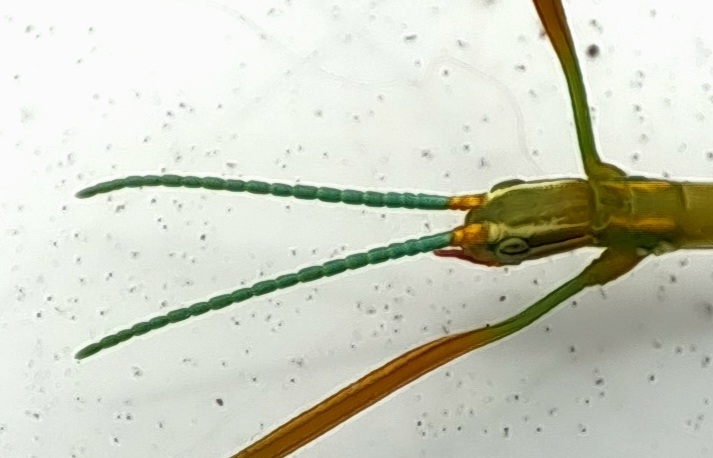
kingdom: Animalia
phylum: Arthropoda
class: Insecta
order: Phasmida
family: Bacillidae
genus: Macynia
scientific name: Macynia labiata
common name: Thunberg's stick insect
